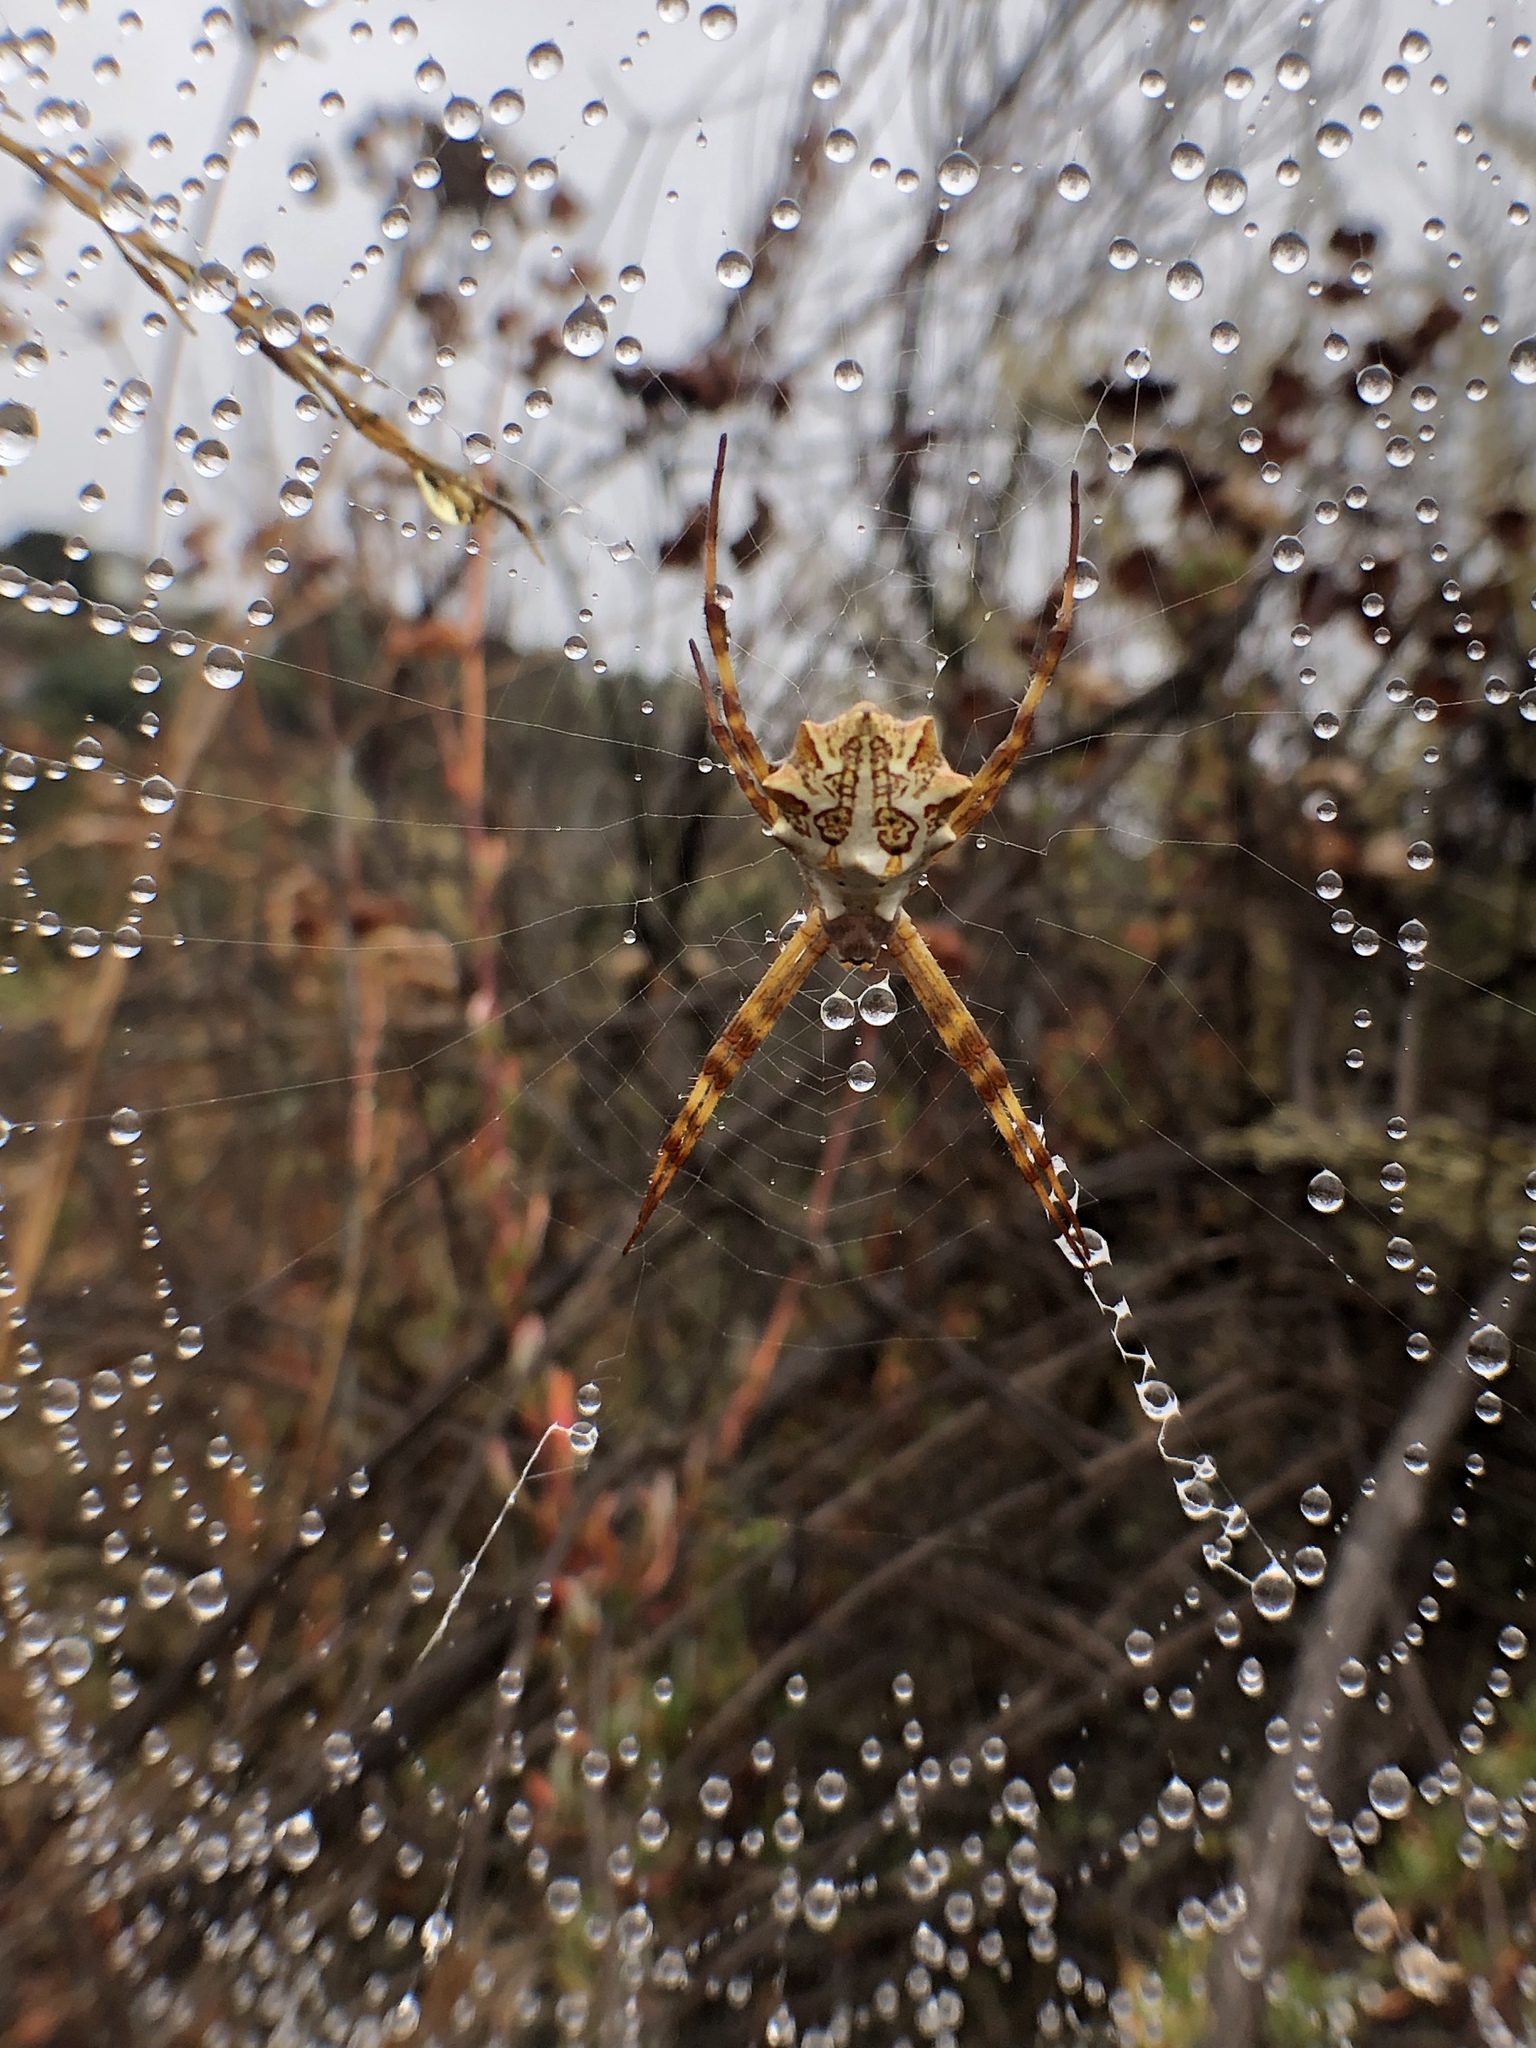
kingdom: Animalia
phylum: Arthropoda
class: Arachnida
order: Araneae
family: Araneidae
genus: Argiope
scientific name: Argiope argentata
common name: Orb weavers
